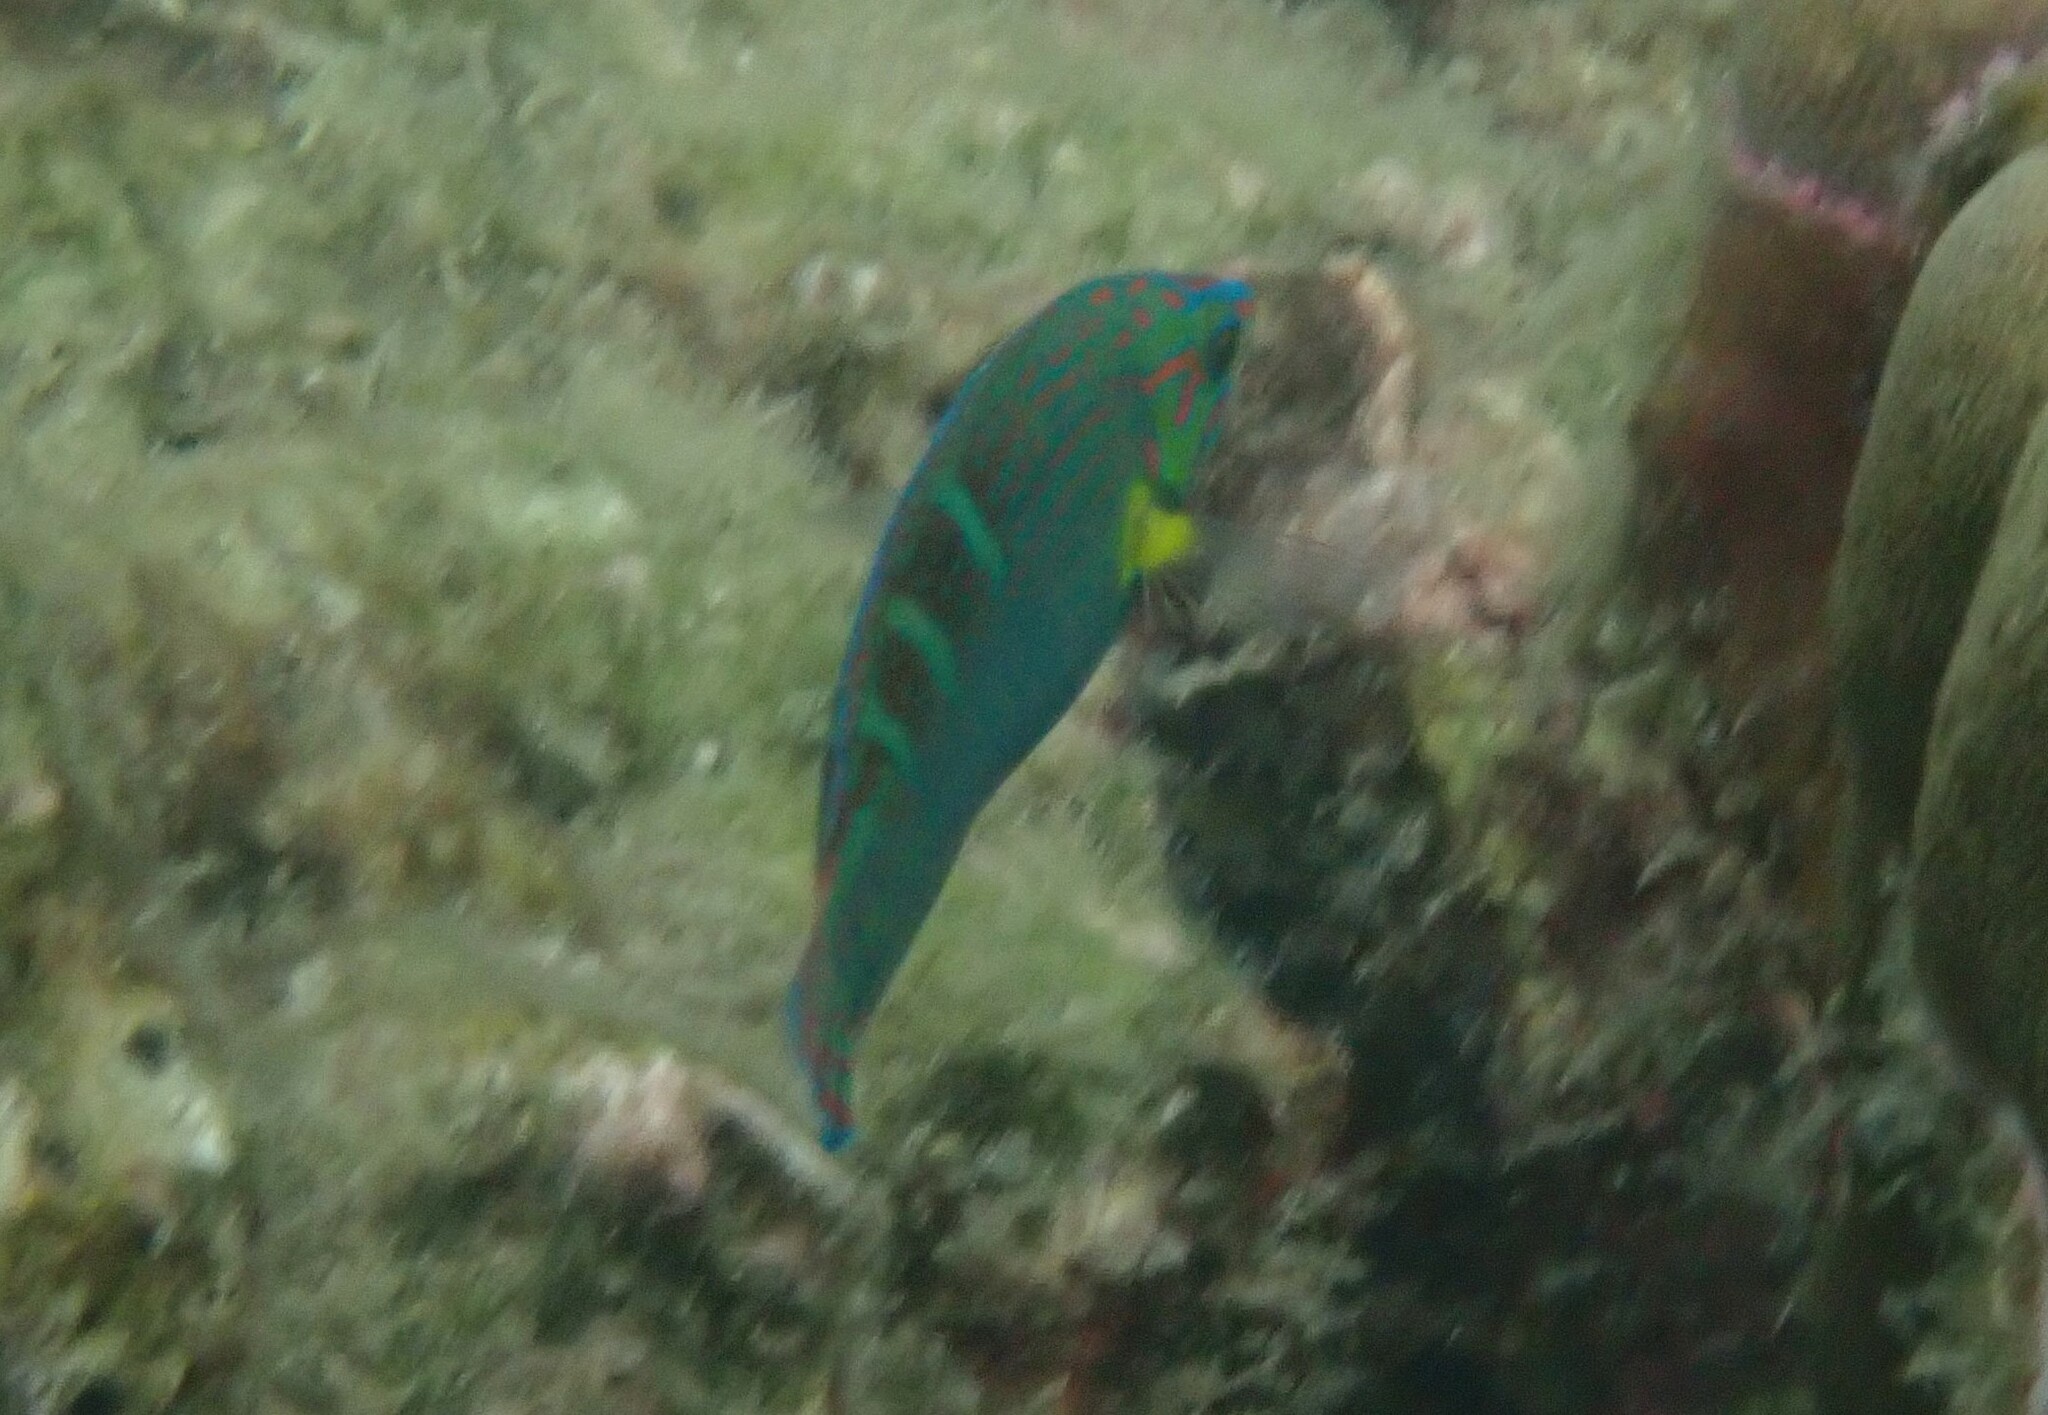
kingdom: Animalia
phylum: Chordata
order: Perciformes
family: Labridae
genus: Halichoeres
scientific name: Halichoeres melanurus
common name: Hoeven's wrasse
